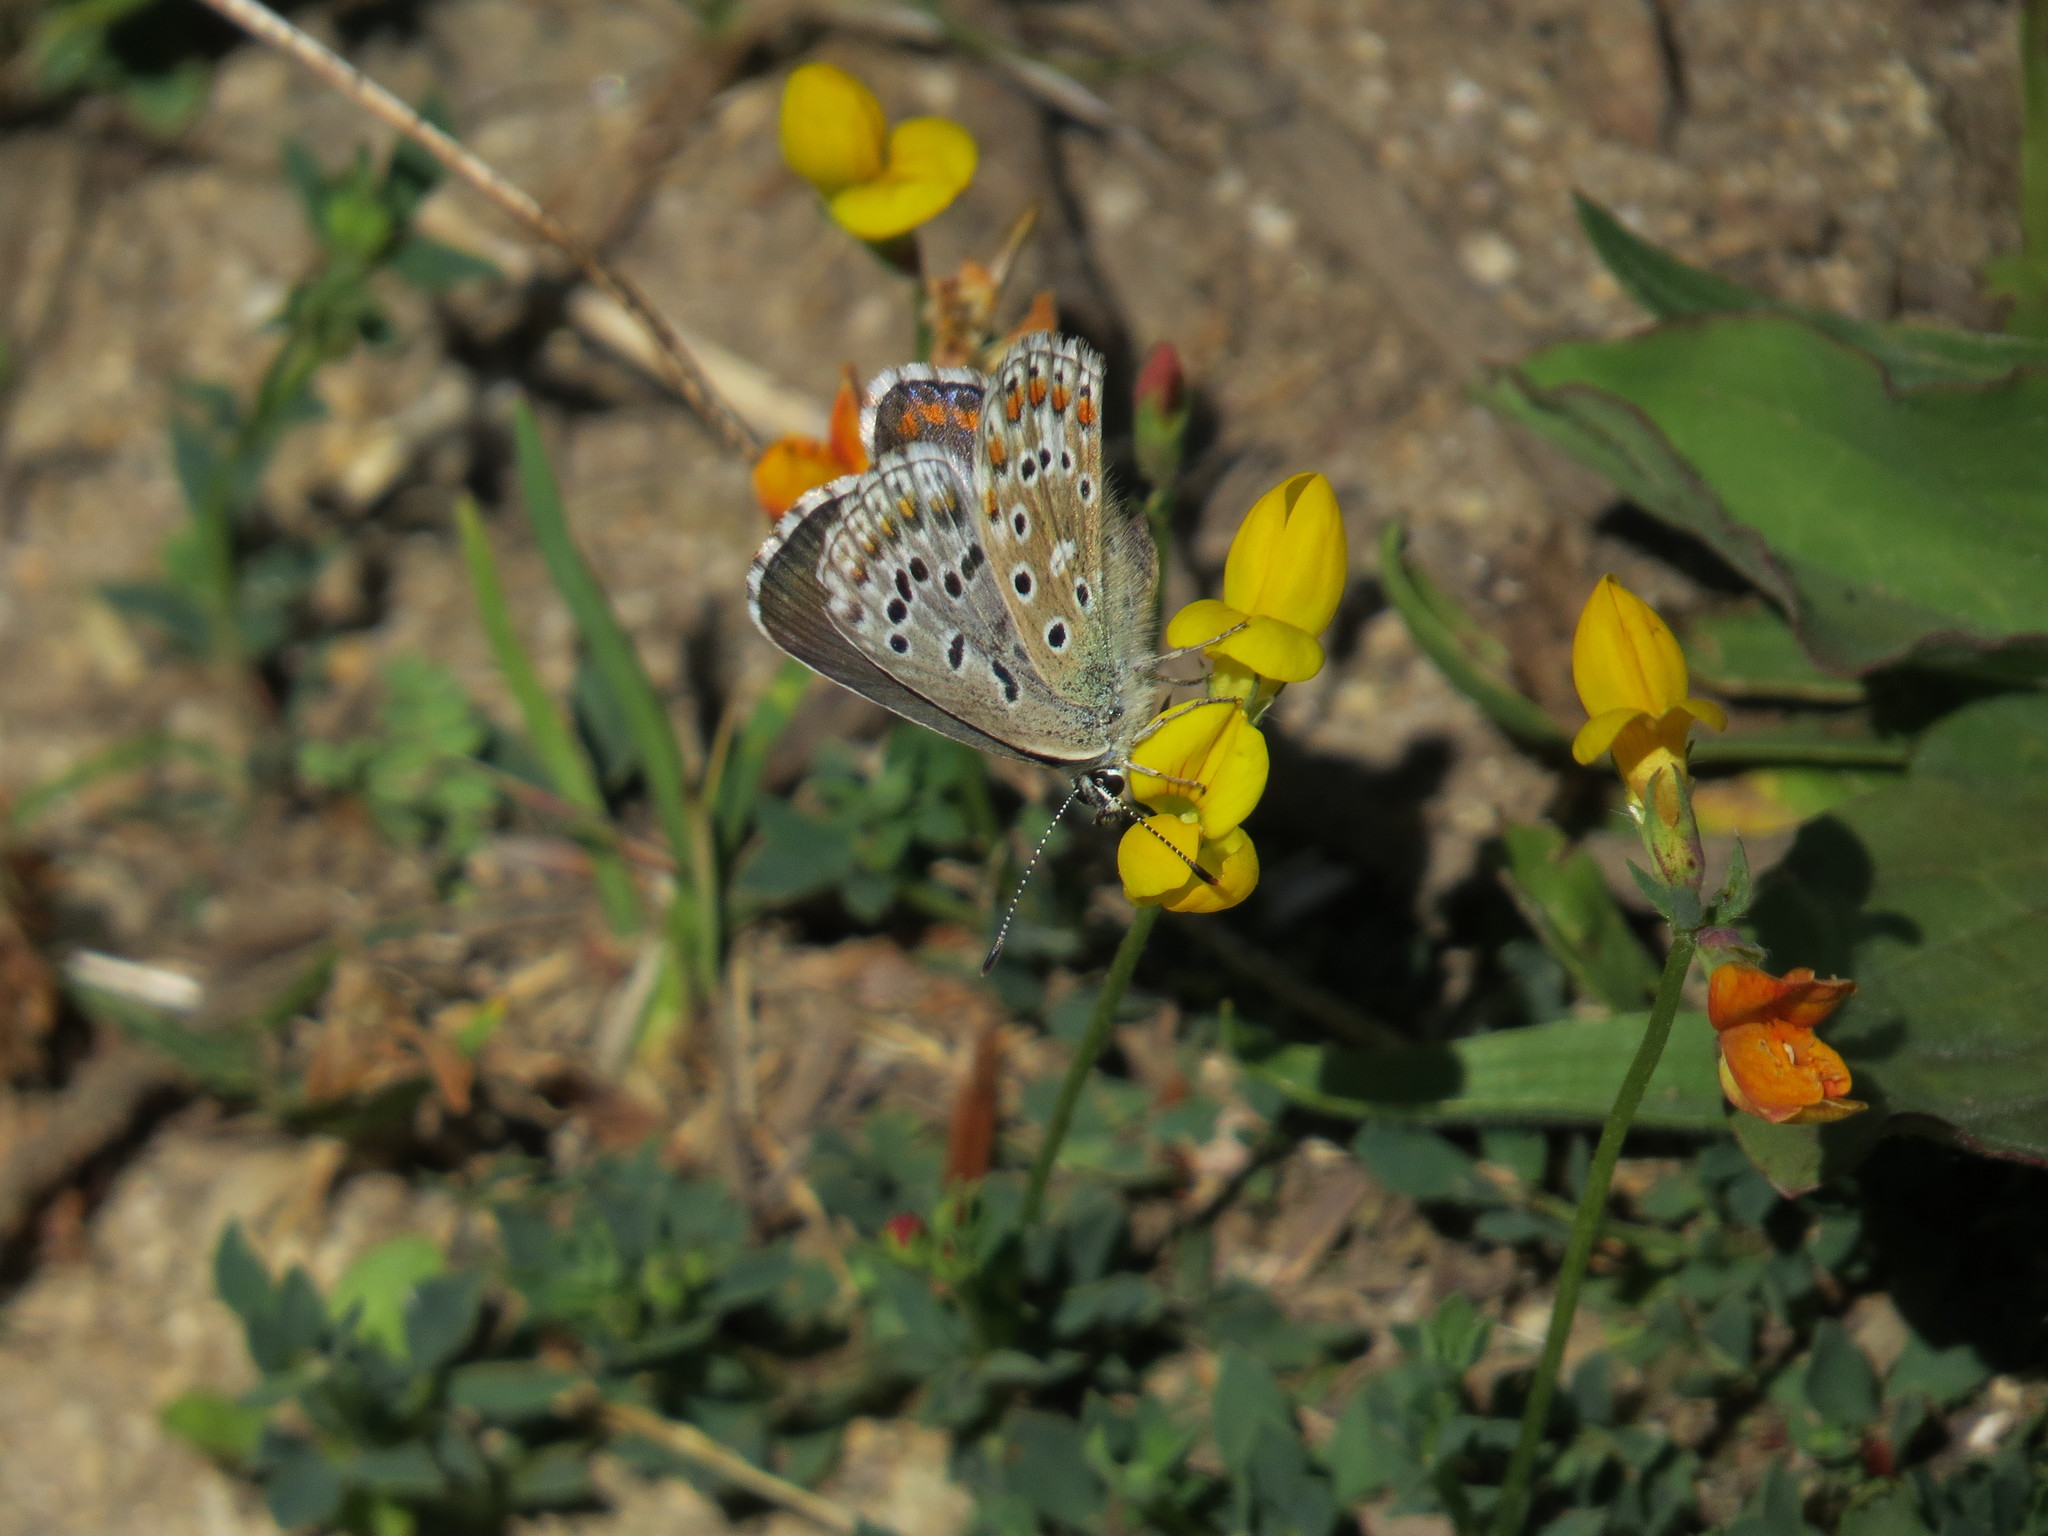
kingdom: Animalia
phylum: Arthropoda
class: Insecta
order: Lepidoptera
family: Lycaenidae
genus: Lysandra
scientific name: Lysandra bellargus
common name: Adonis blue
